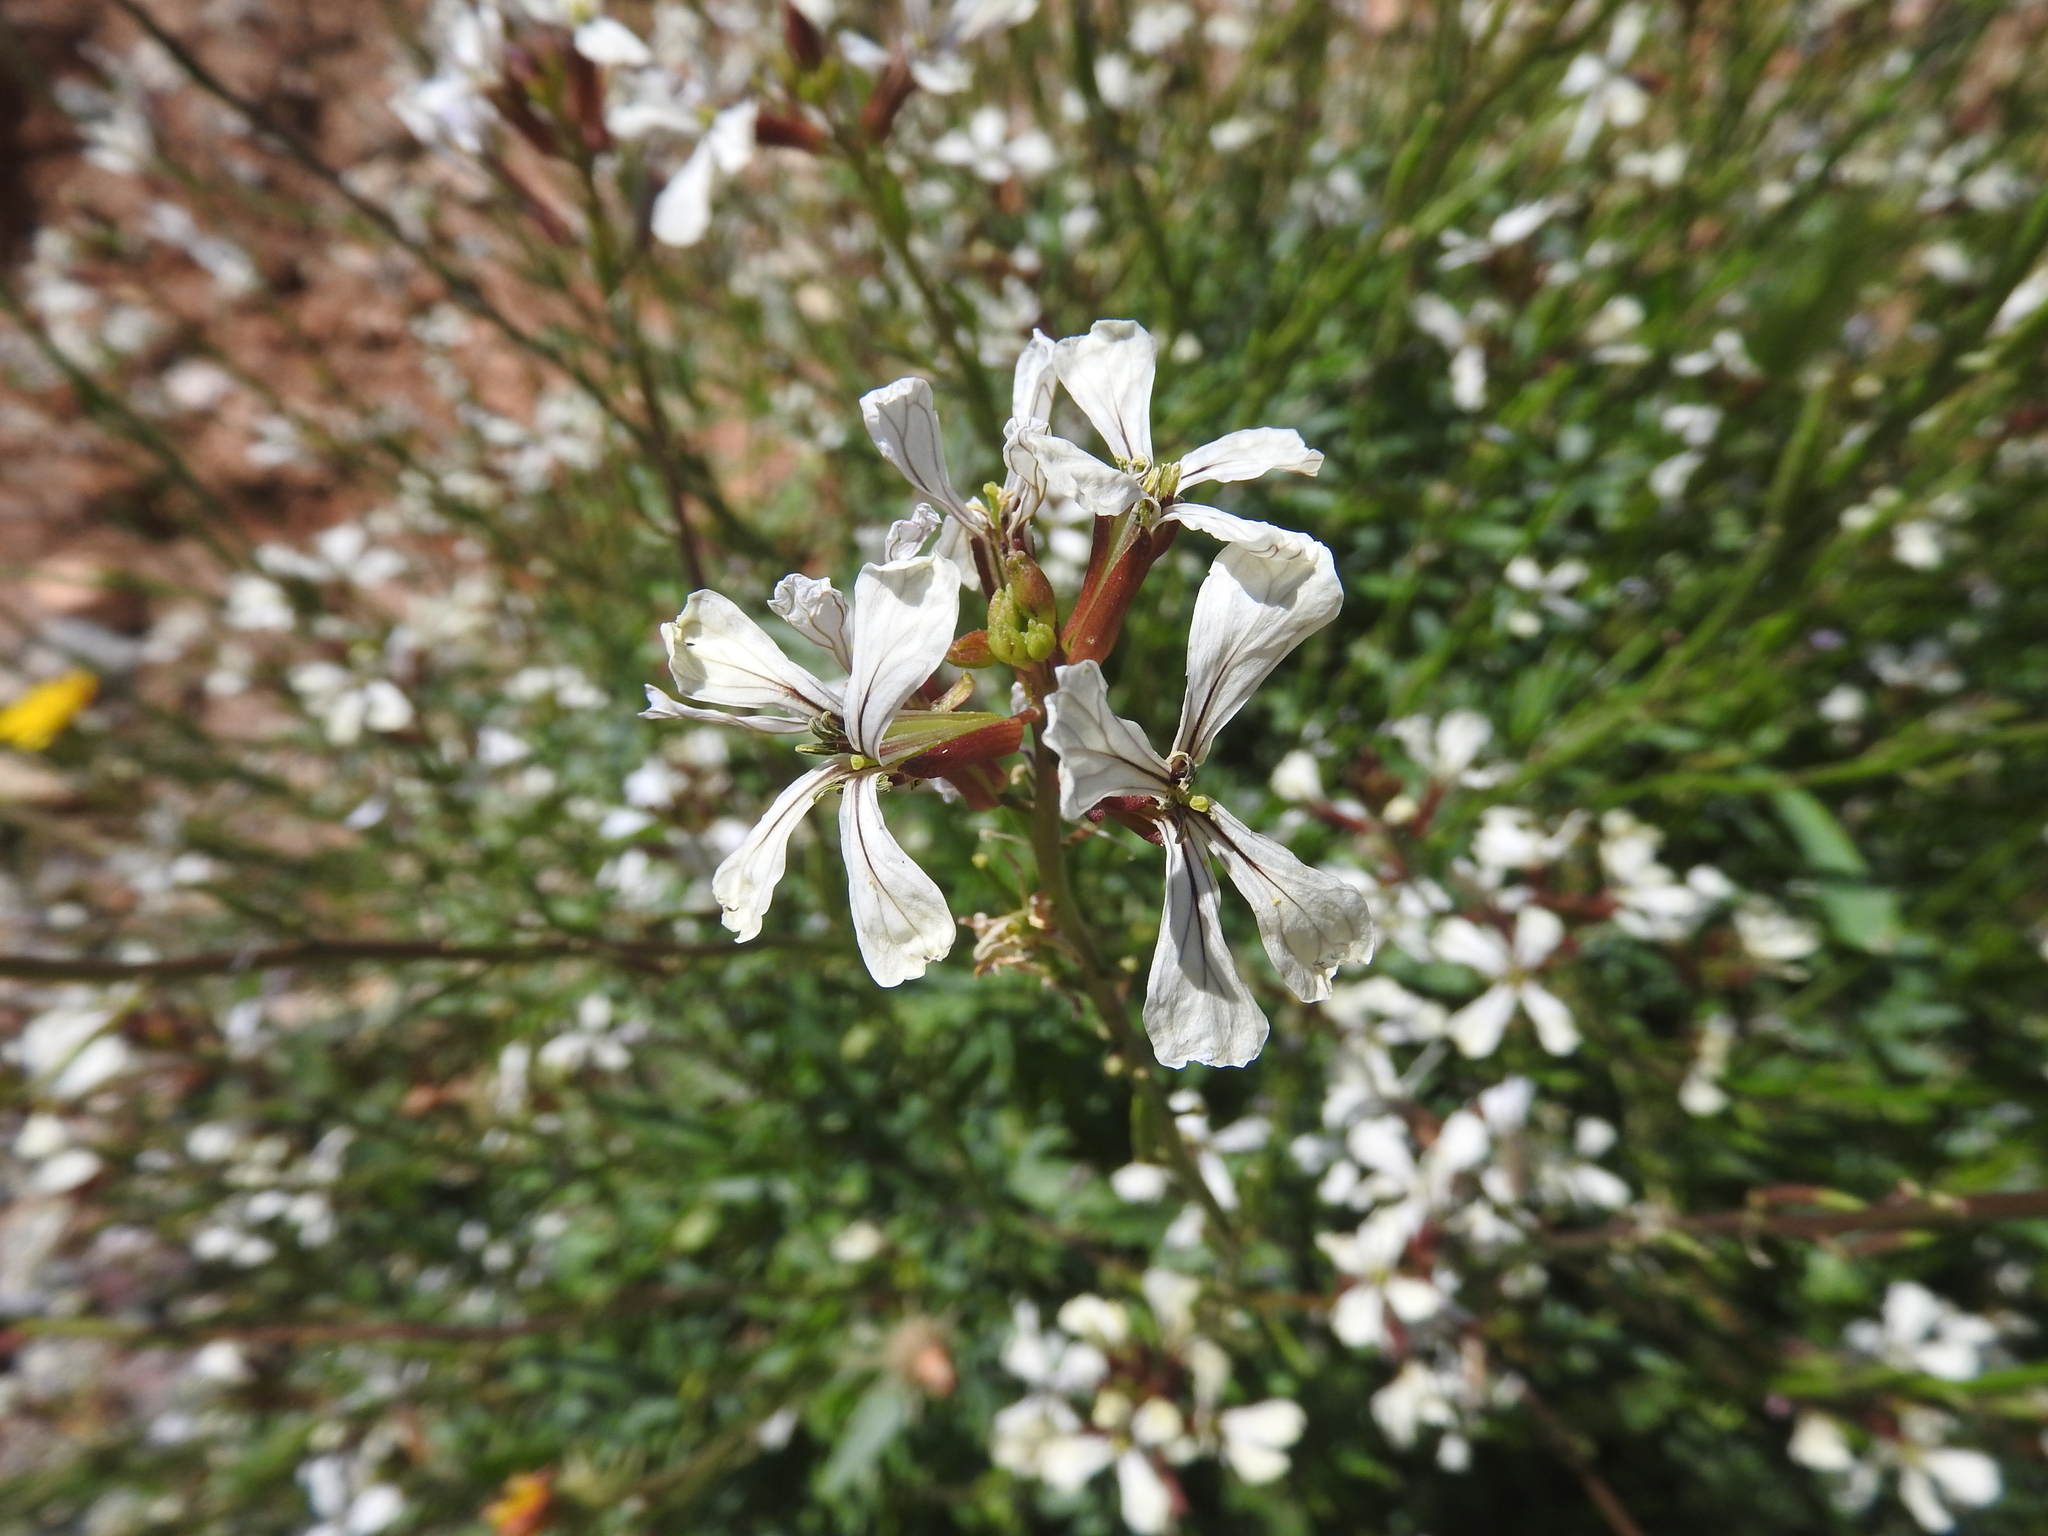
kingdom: Plantae
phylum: Tracheophyta
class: Magnoliopsida
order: Brassicales
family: Brassicaceae
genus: Eruca
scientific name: Eruca vesicaria
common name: Garden rocket
